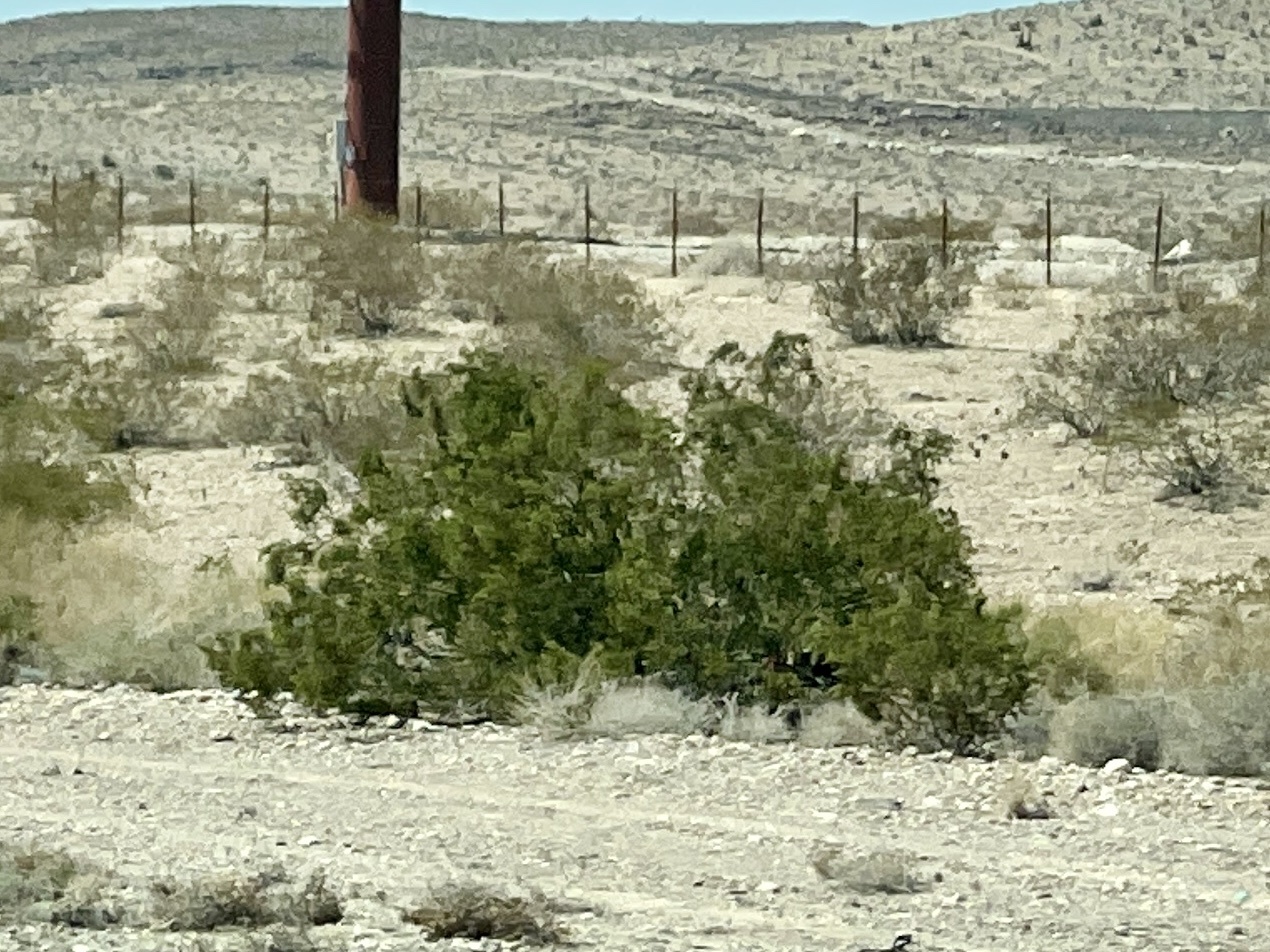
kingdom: Plantae
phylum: Tracheophyta
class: Magnoliopsida
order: Zygophyllales
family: Zygophyllaceae
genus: Larrea
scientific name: Larrea tridentata
